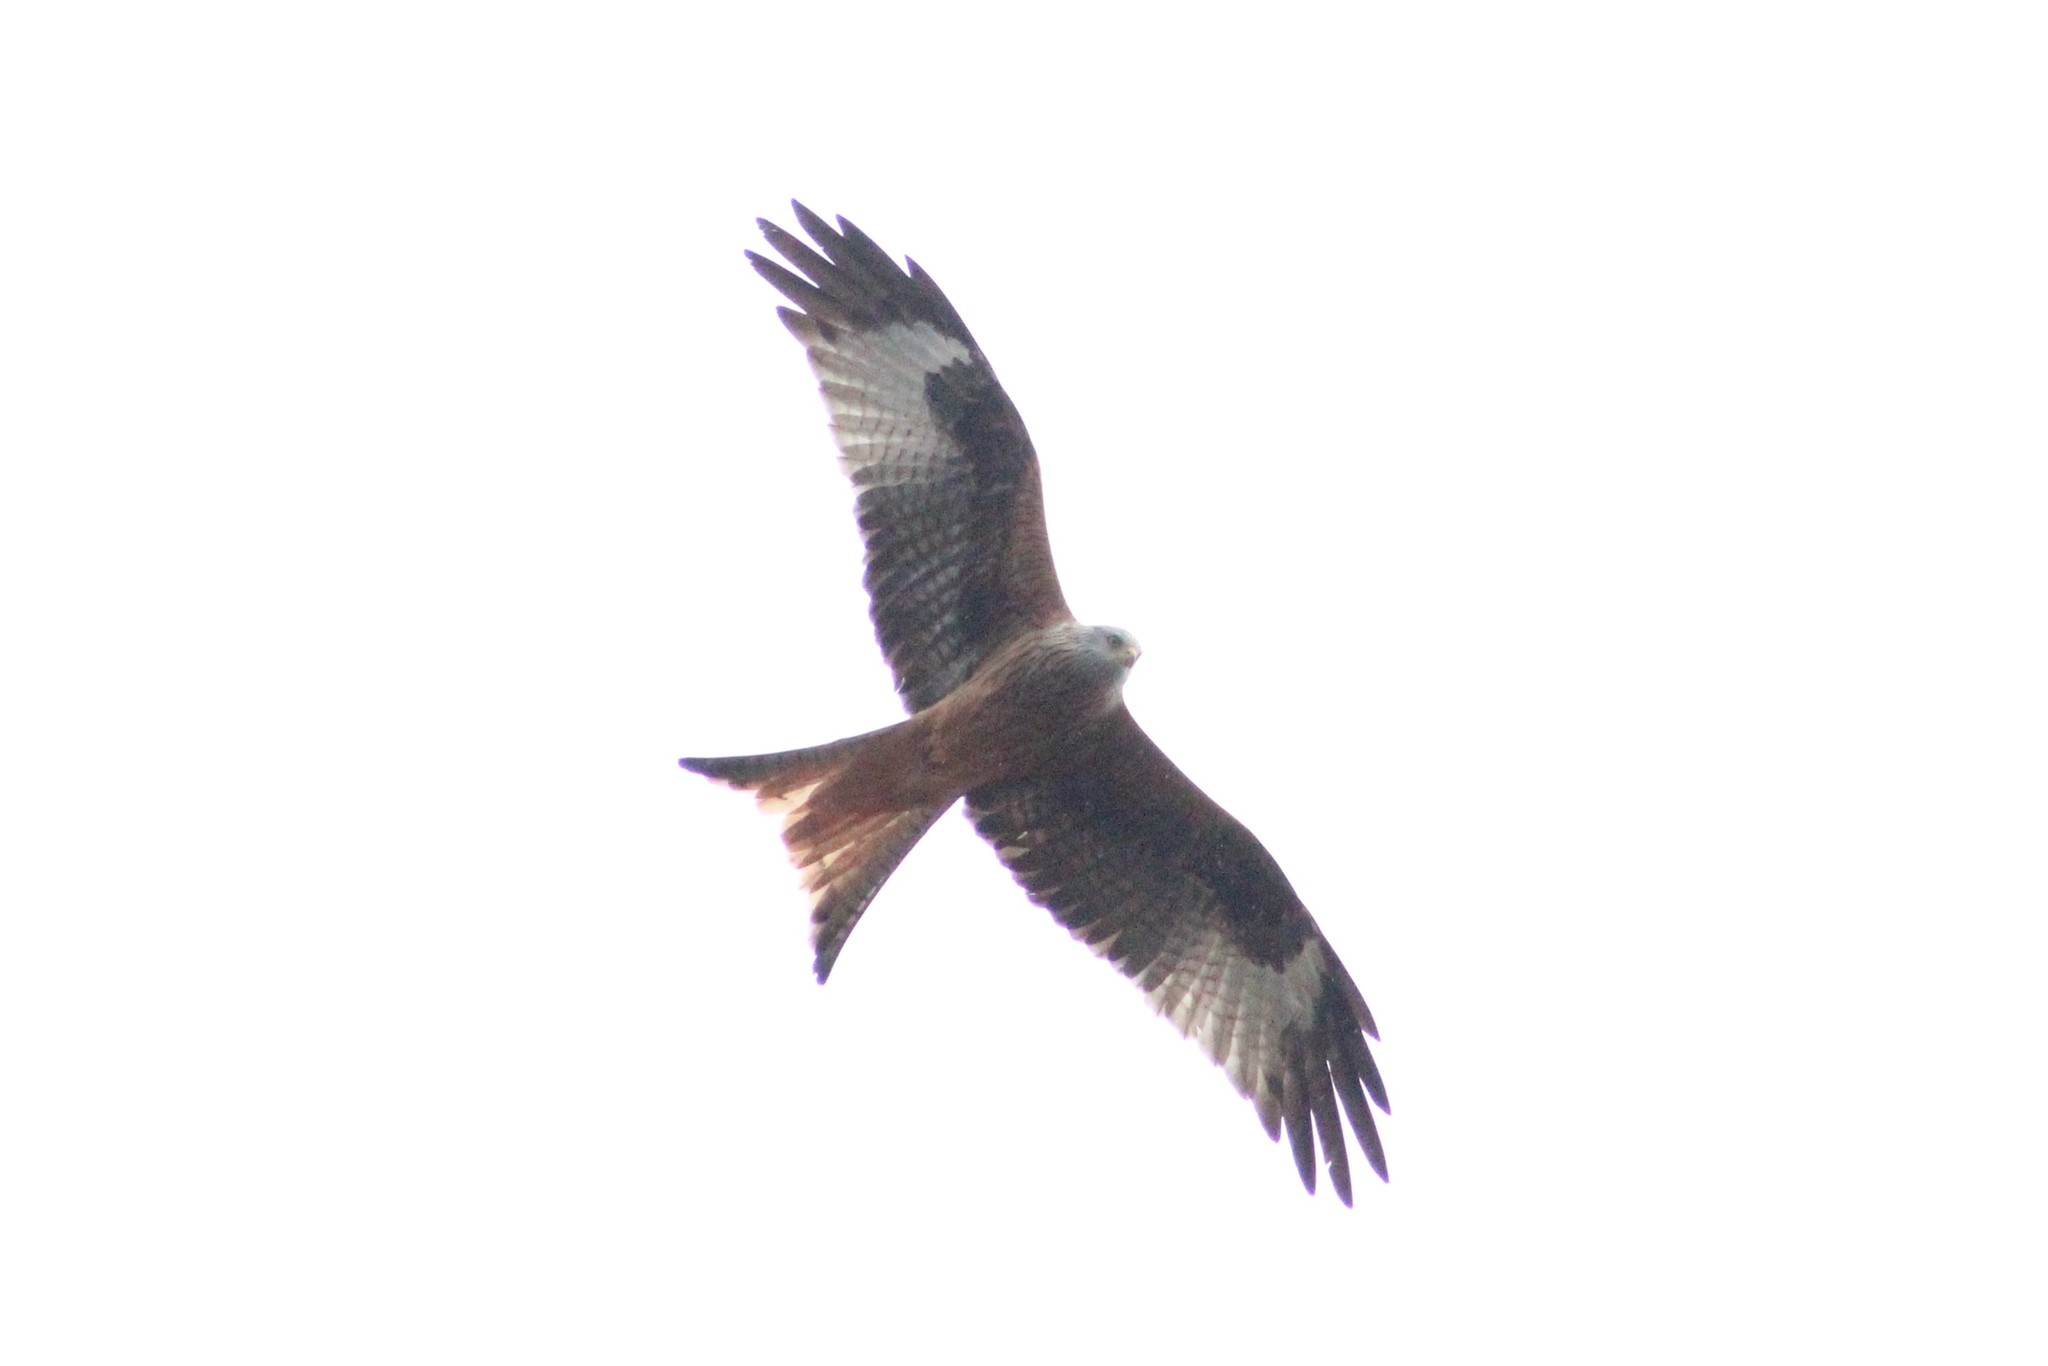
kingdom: Animalia
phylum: Chordata
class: Aves
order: Accipitriformes
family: Accipitridae
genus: Milvus
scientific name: Milvus milvus
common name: Red kite
